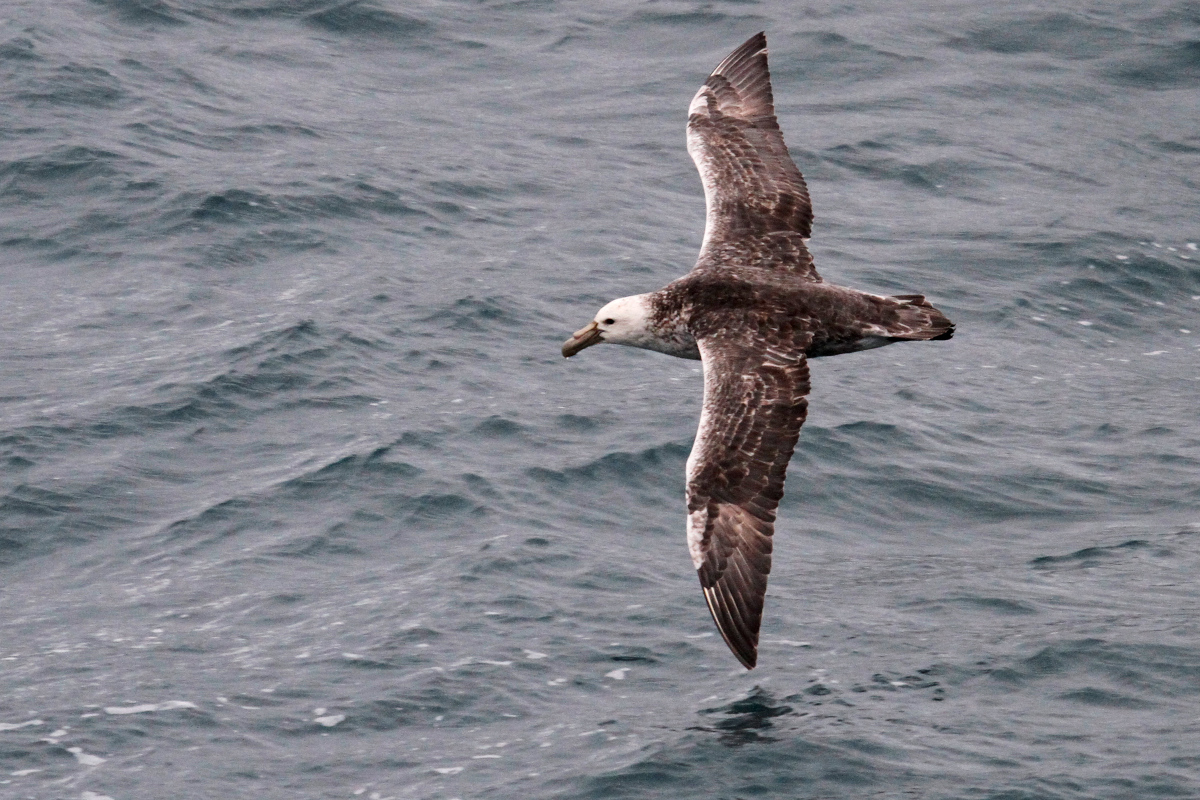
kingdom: Animalia
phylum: Chordata
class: Aves
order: Procellariiformes
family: Procellariidae
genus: Macronectes
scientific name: Macronectes giganteus
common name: Southern giant petrel
